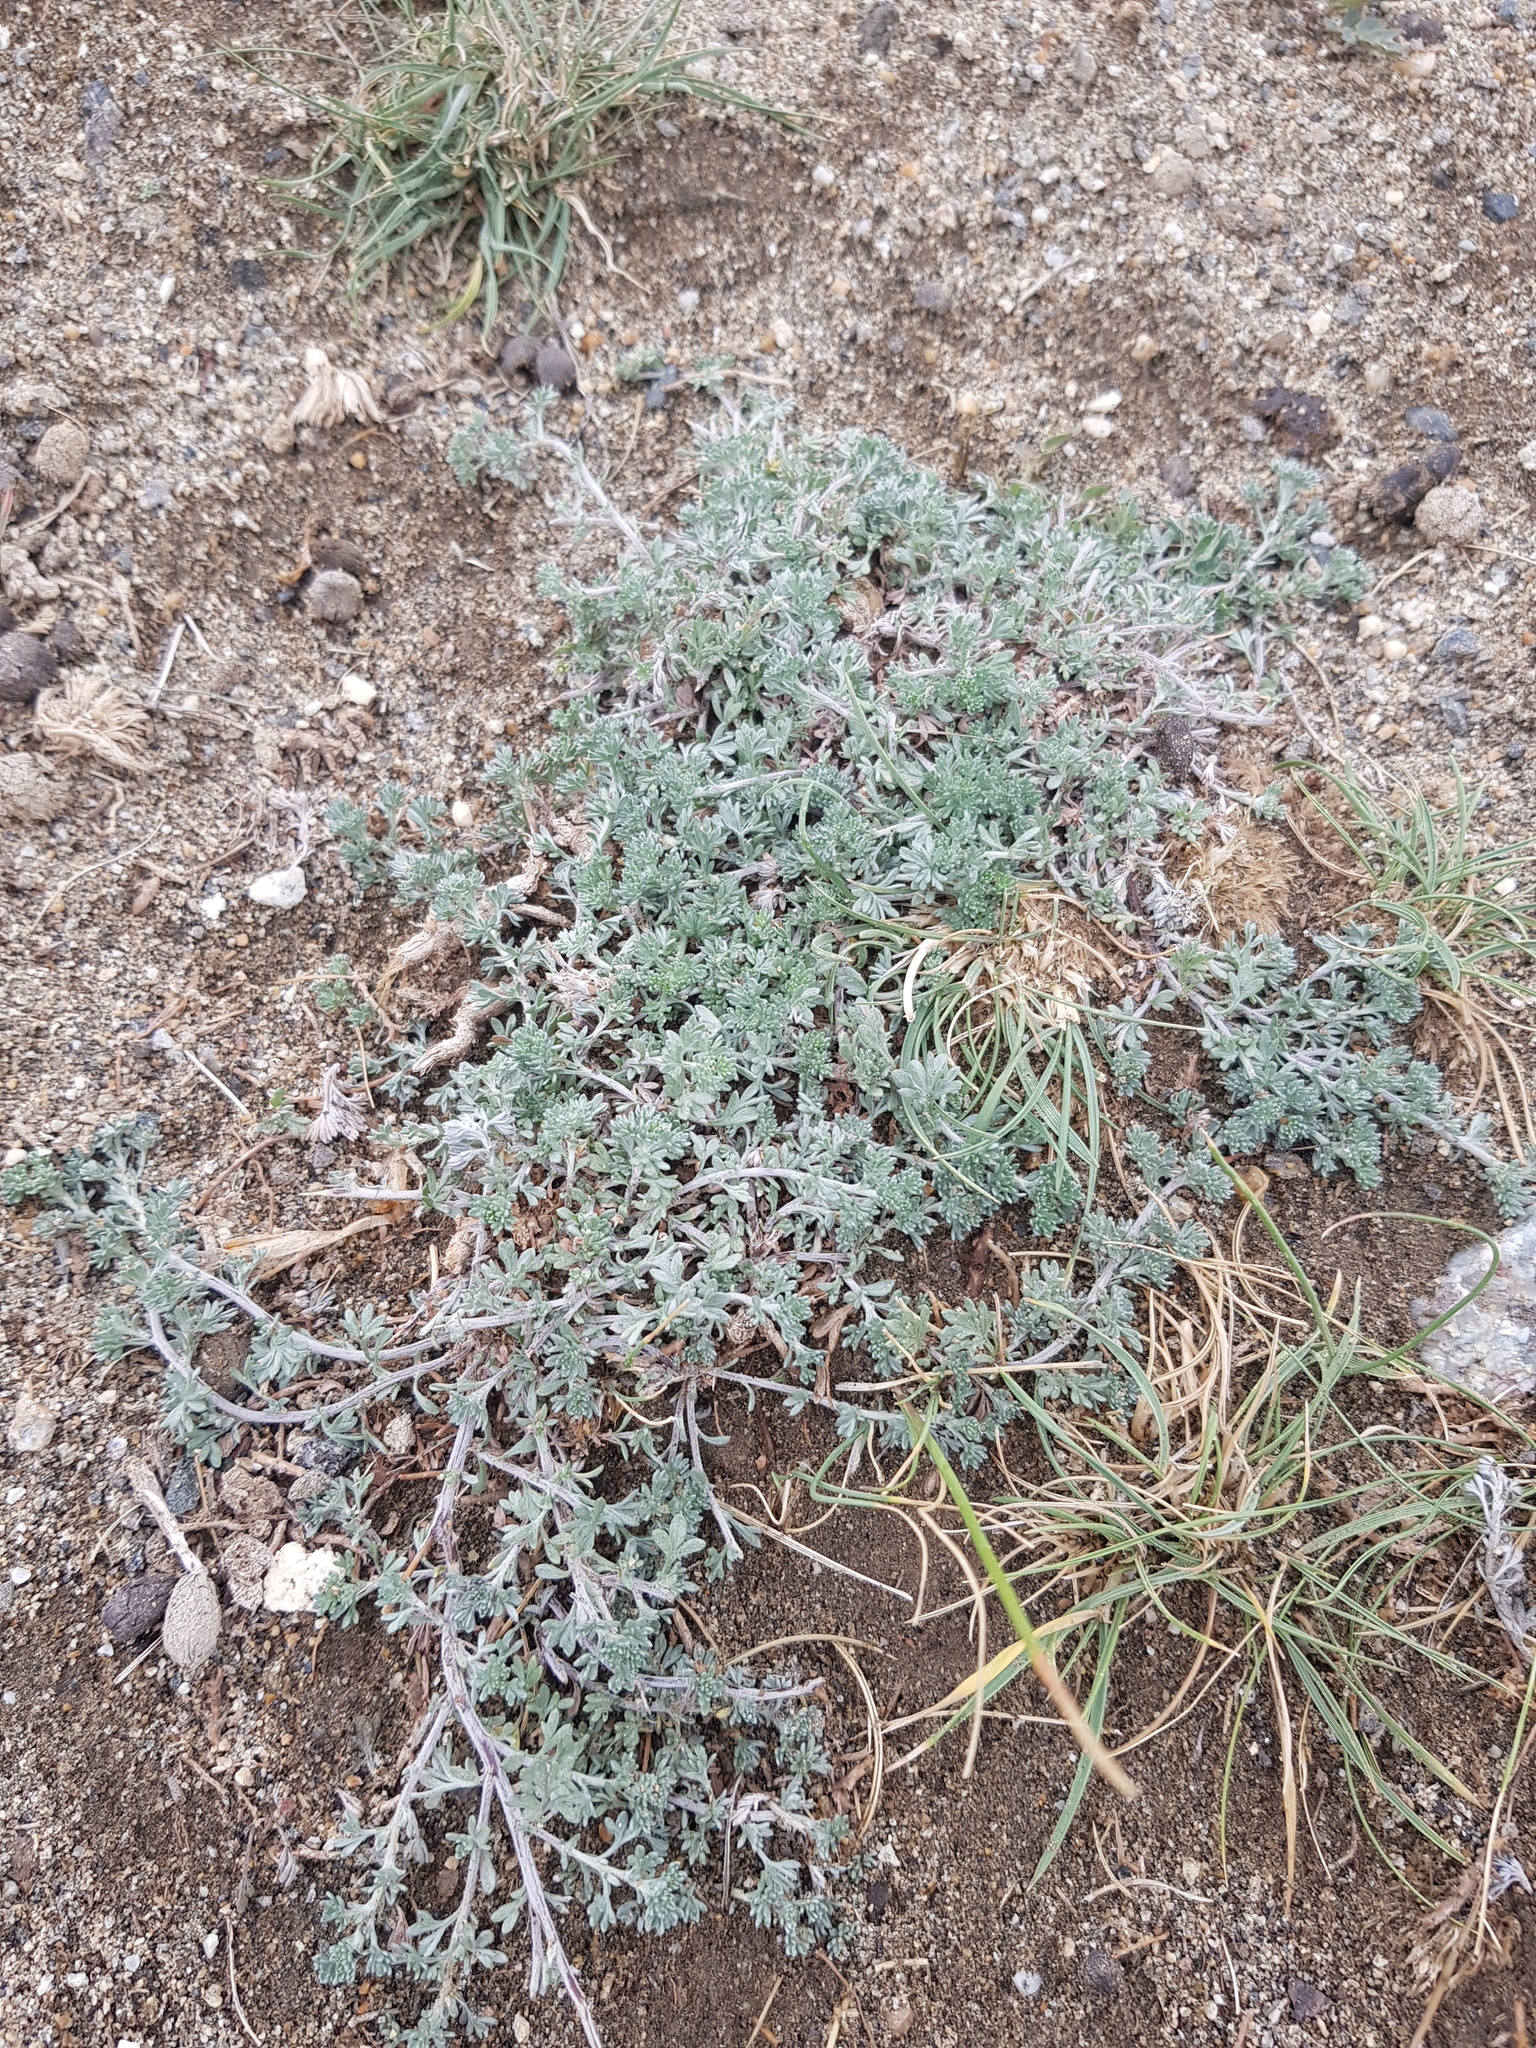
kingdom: Plantae
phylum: Tracheophyta
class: Magnoliopsida
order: Asterales
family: Asteraceae
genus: Artemisia
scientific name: Artemisia frigida
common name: Prairie sagewort
